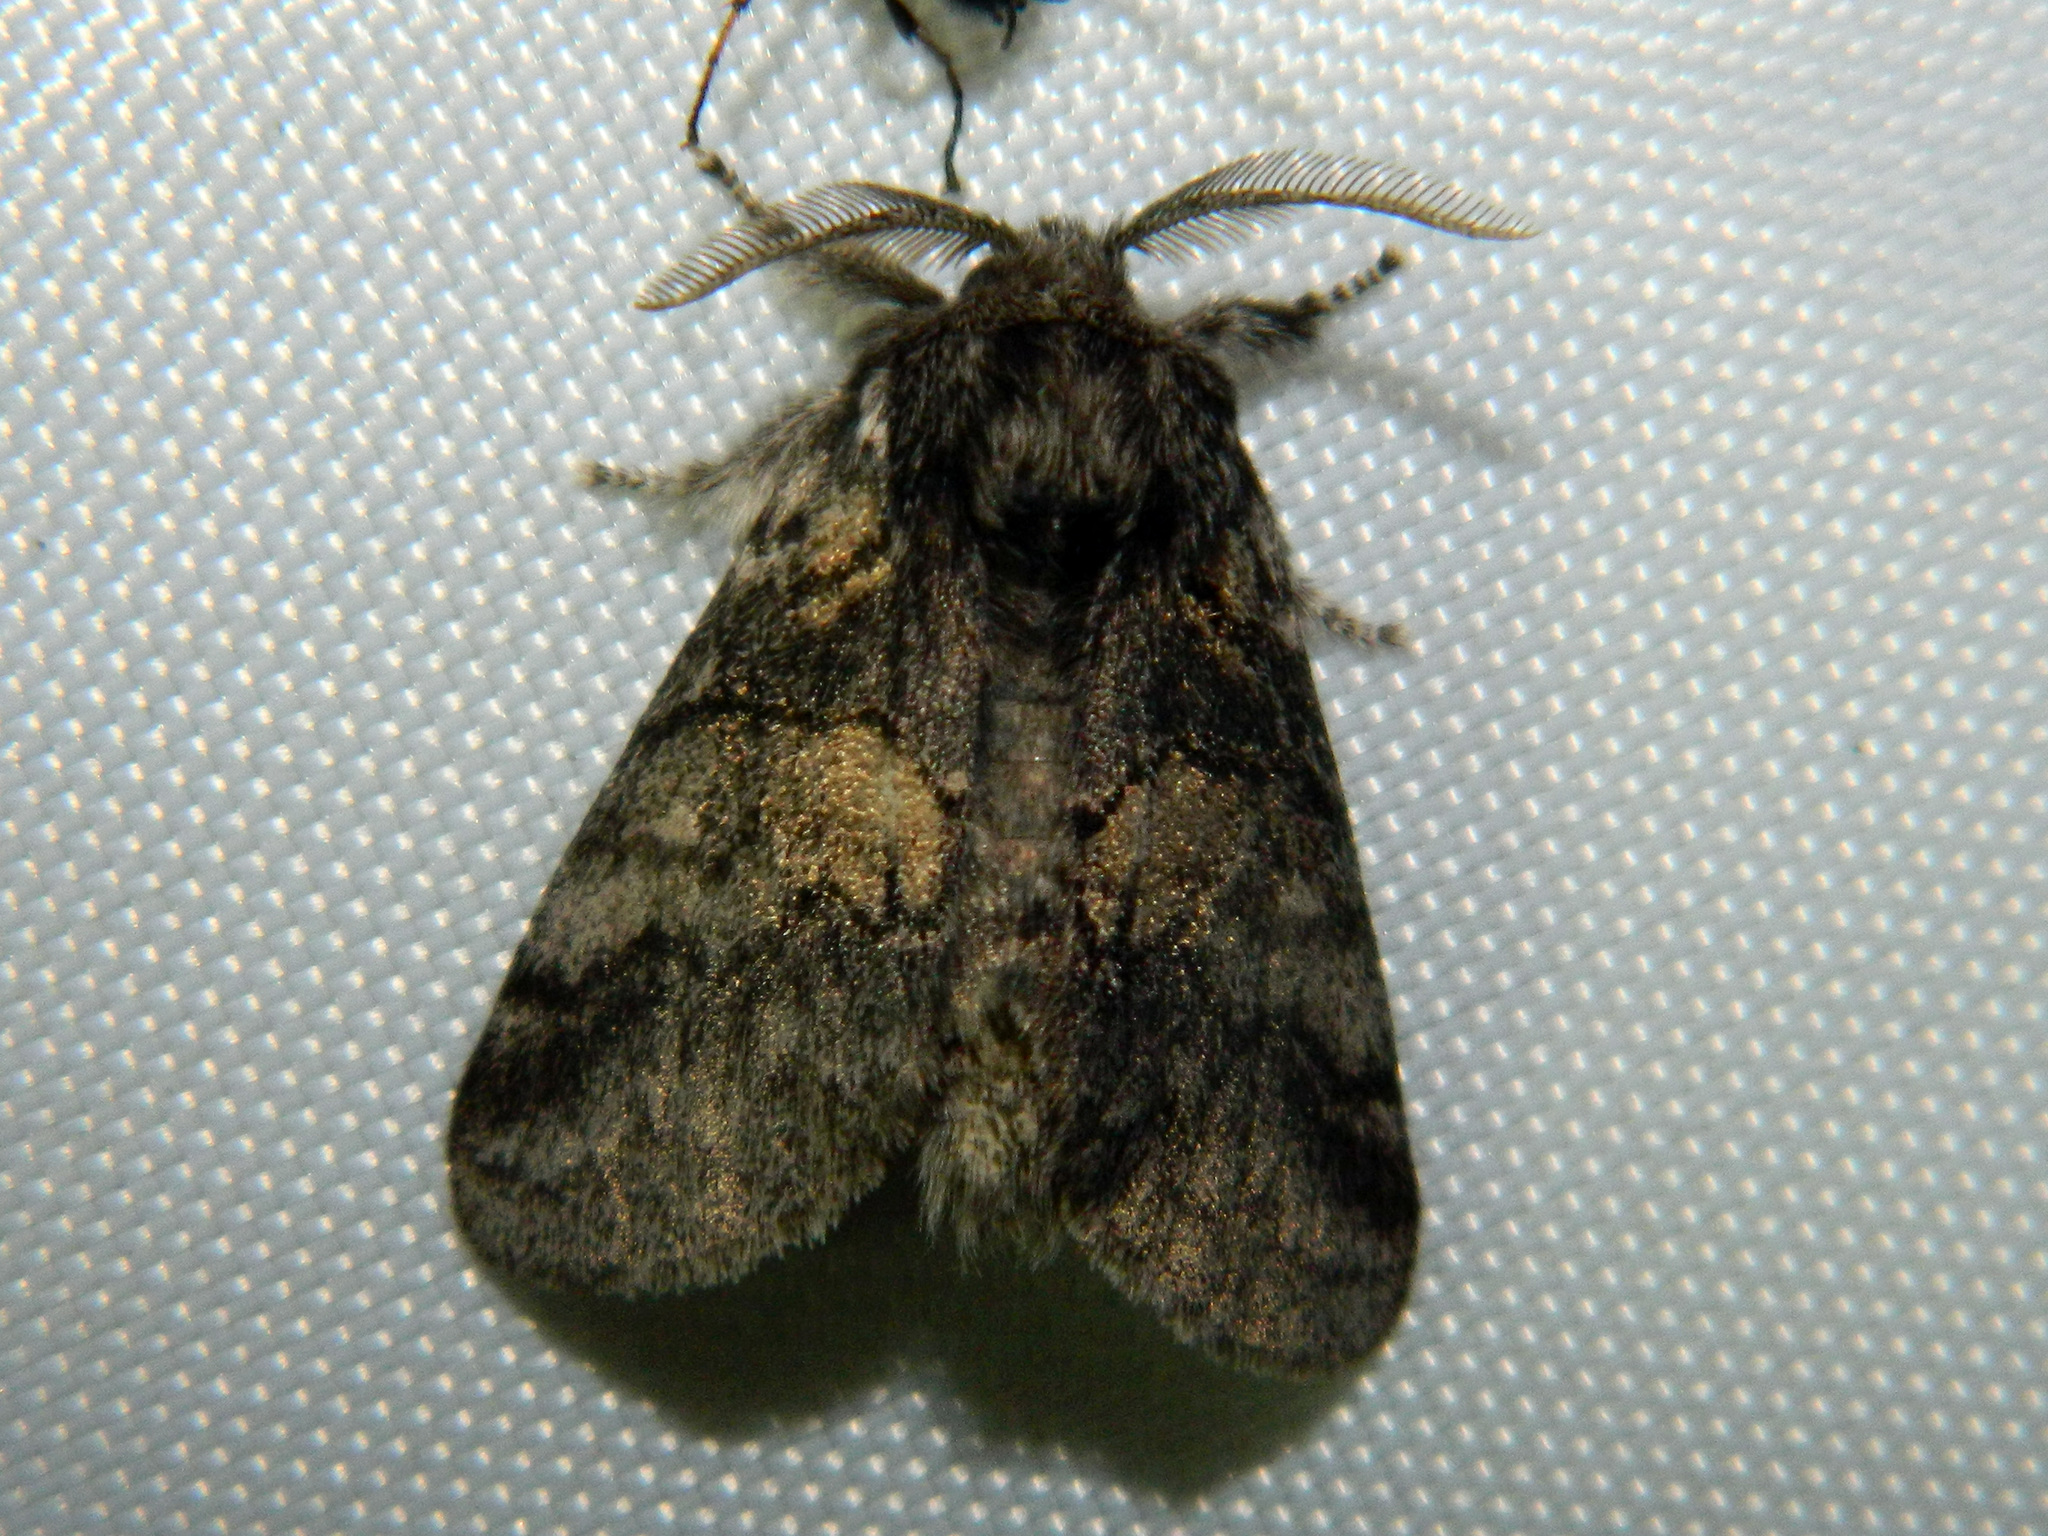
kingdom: Animalia
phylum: Arthropoda
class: Insecta
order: Lepidoptera
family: Notodontidae
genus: Gluphisia
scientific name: Gluphisia septentrionis
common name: Common gluphisia
